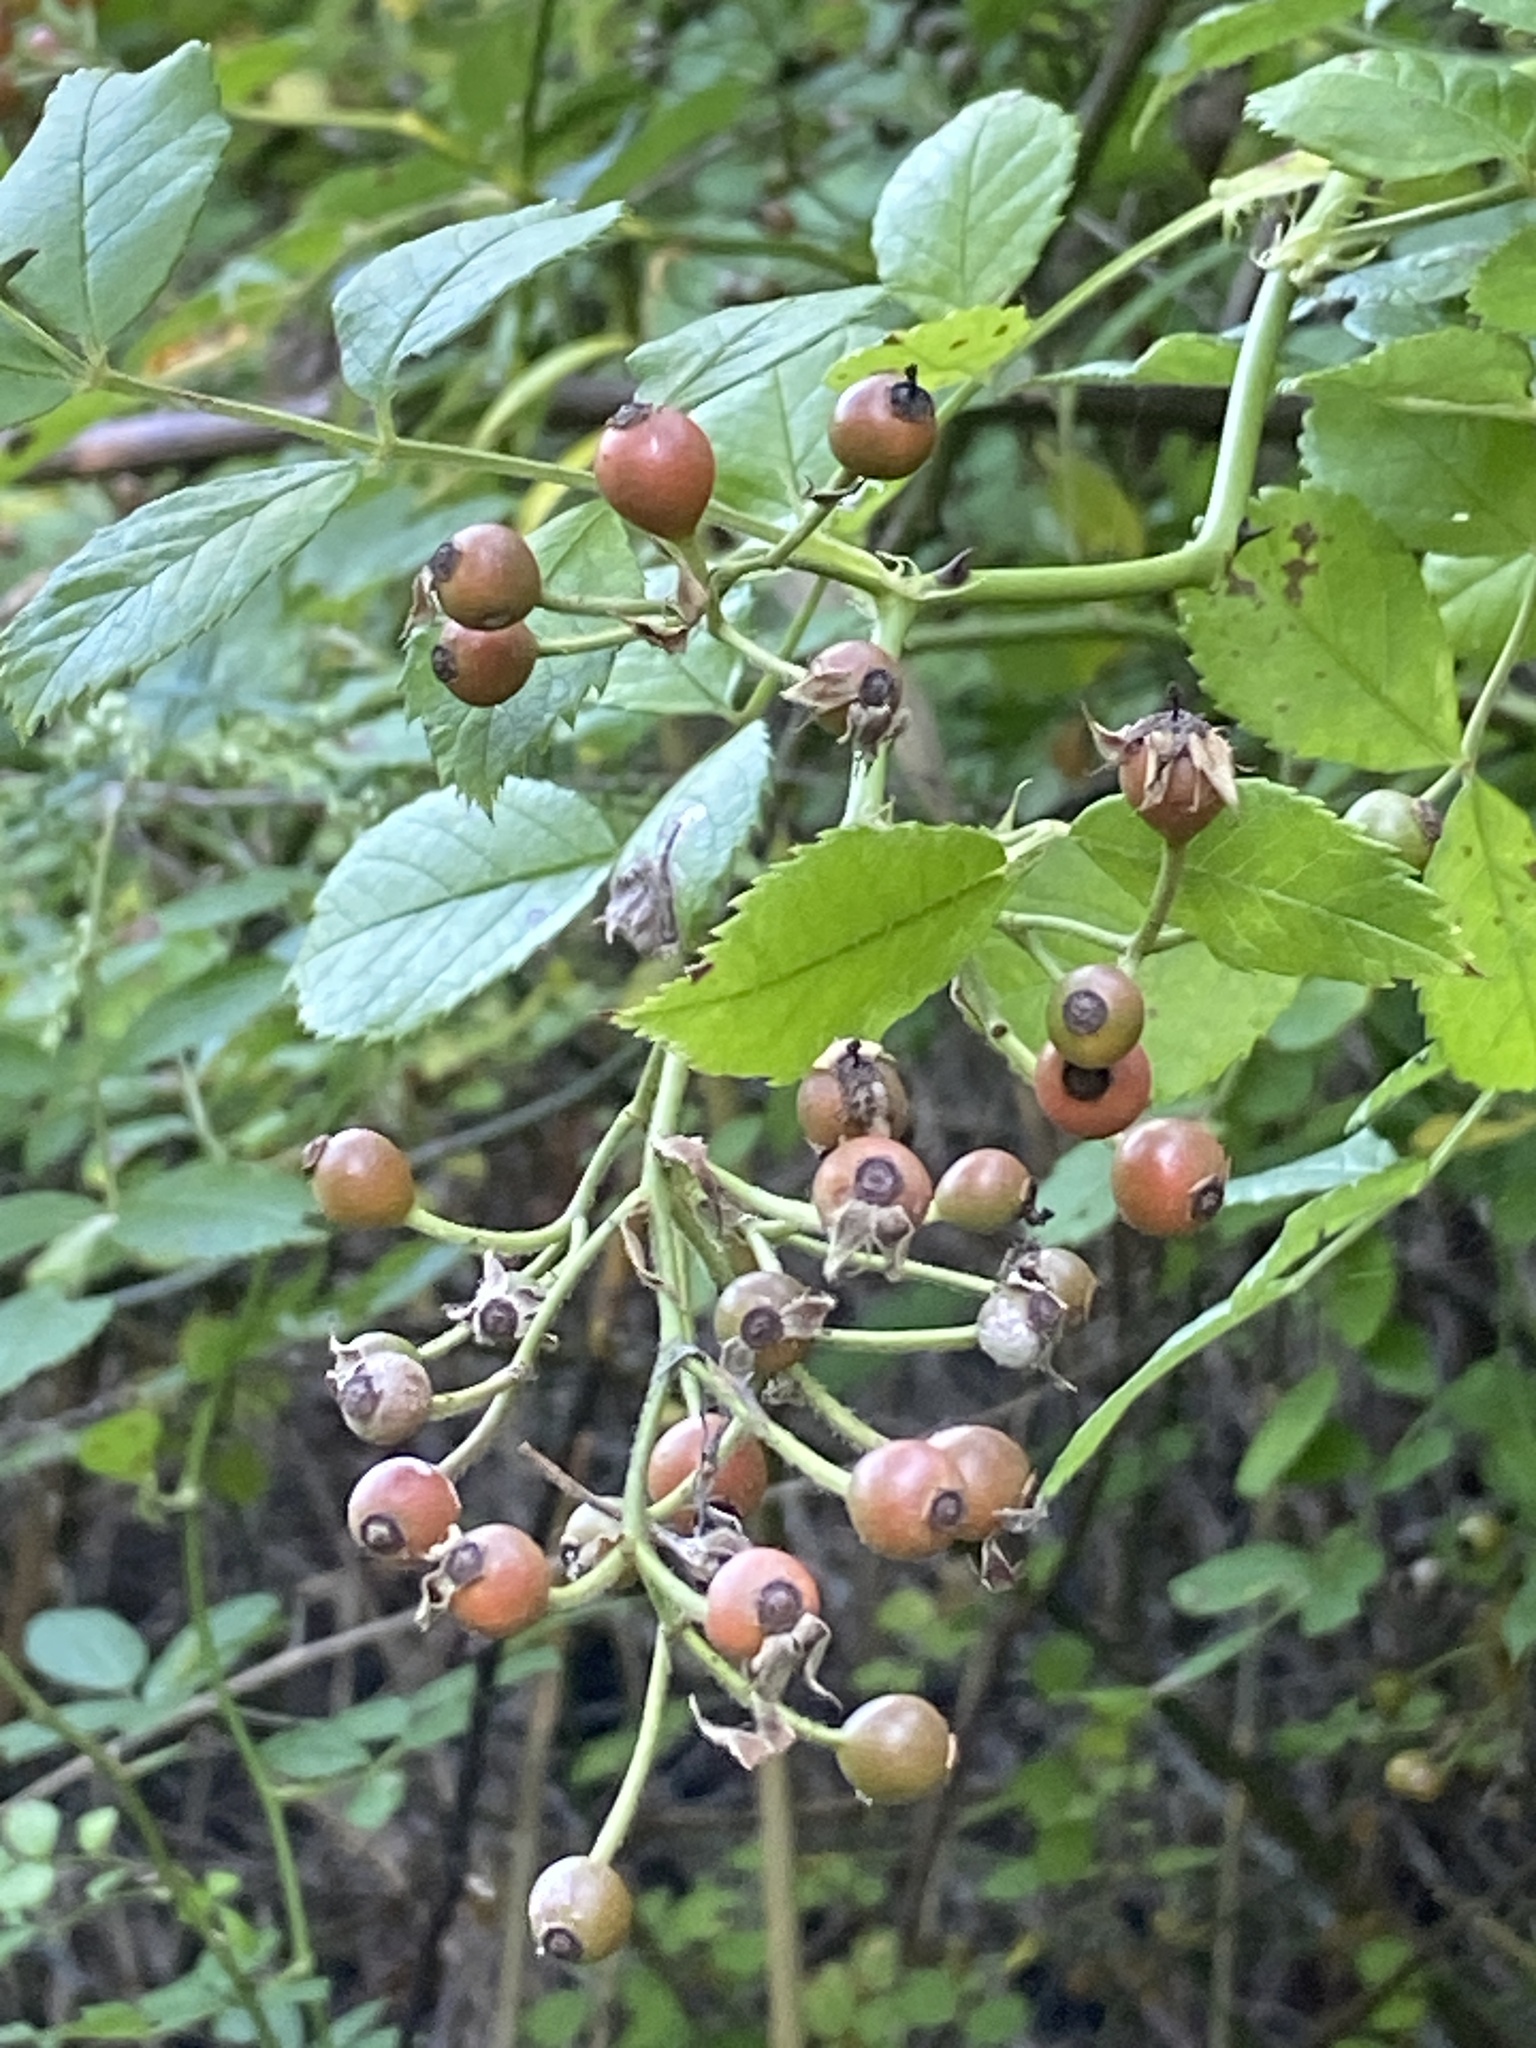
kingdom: Plantae
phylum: Tracheophyta
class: Magnoliopsida
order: Rosales
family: Rosaceae
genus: Rosa
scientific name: Rosa multiflora
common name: Multiflora rose
